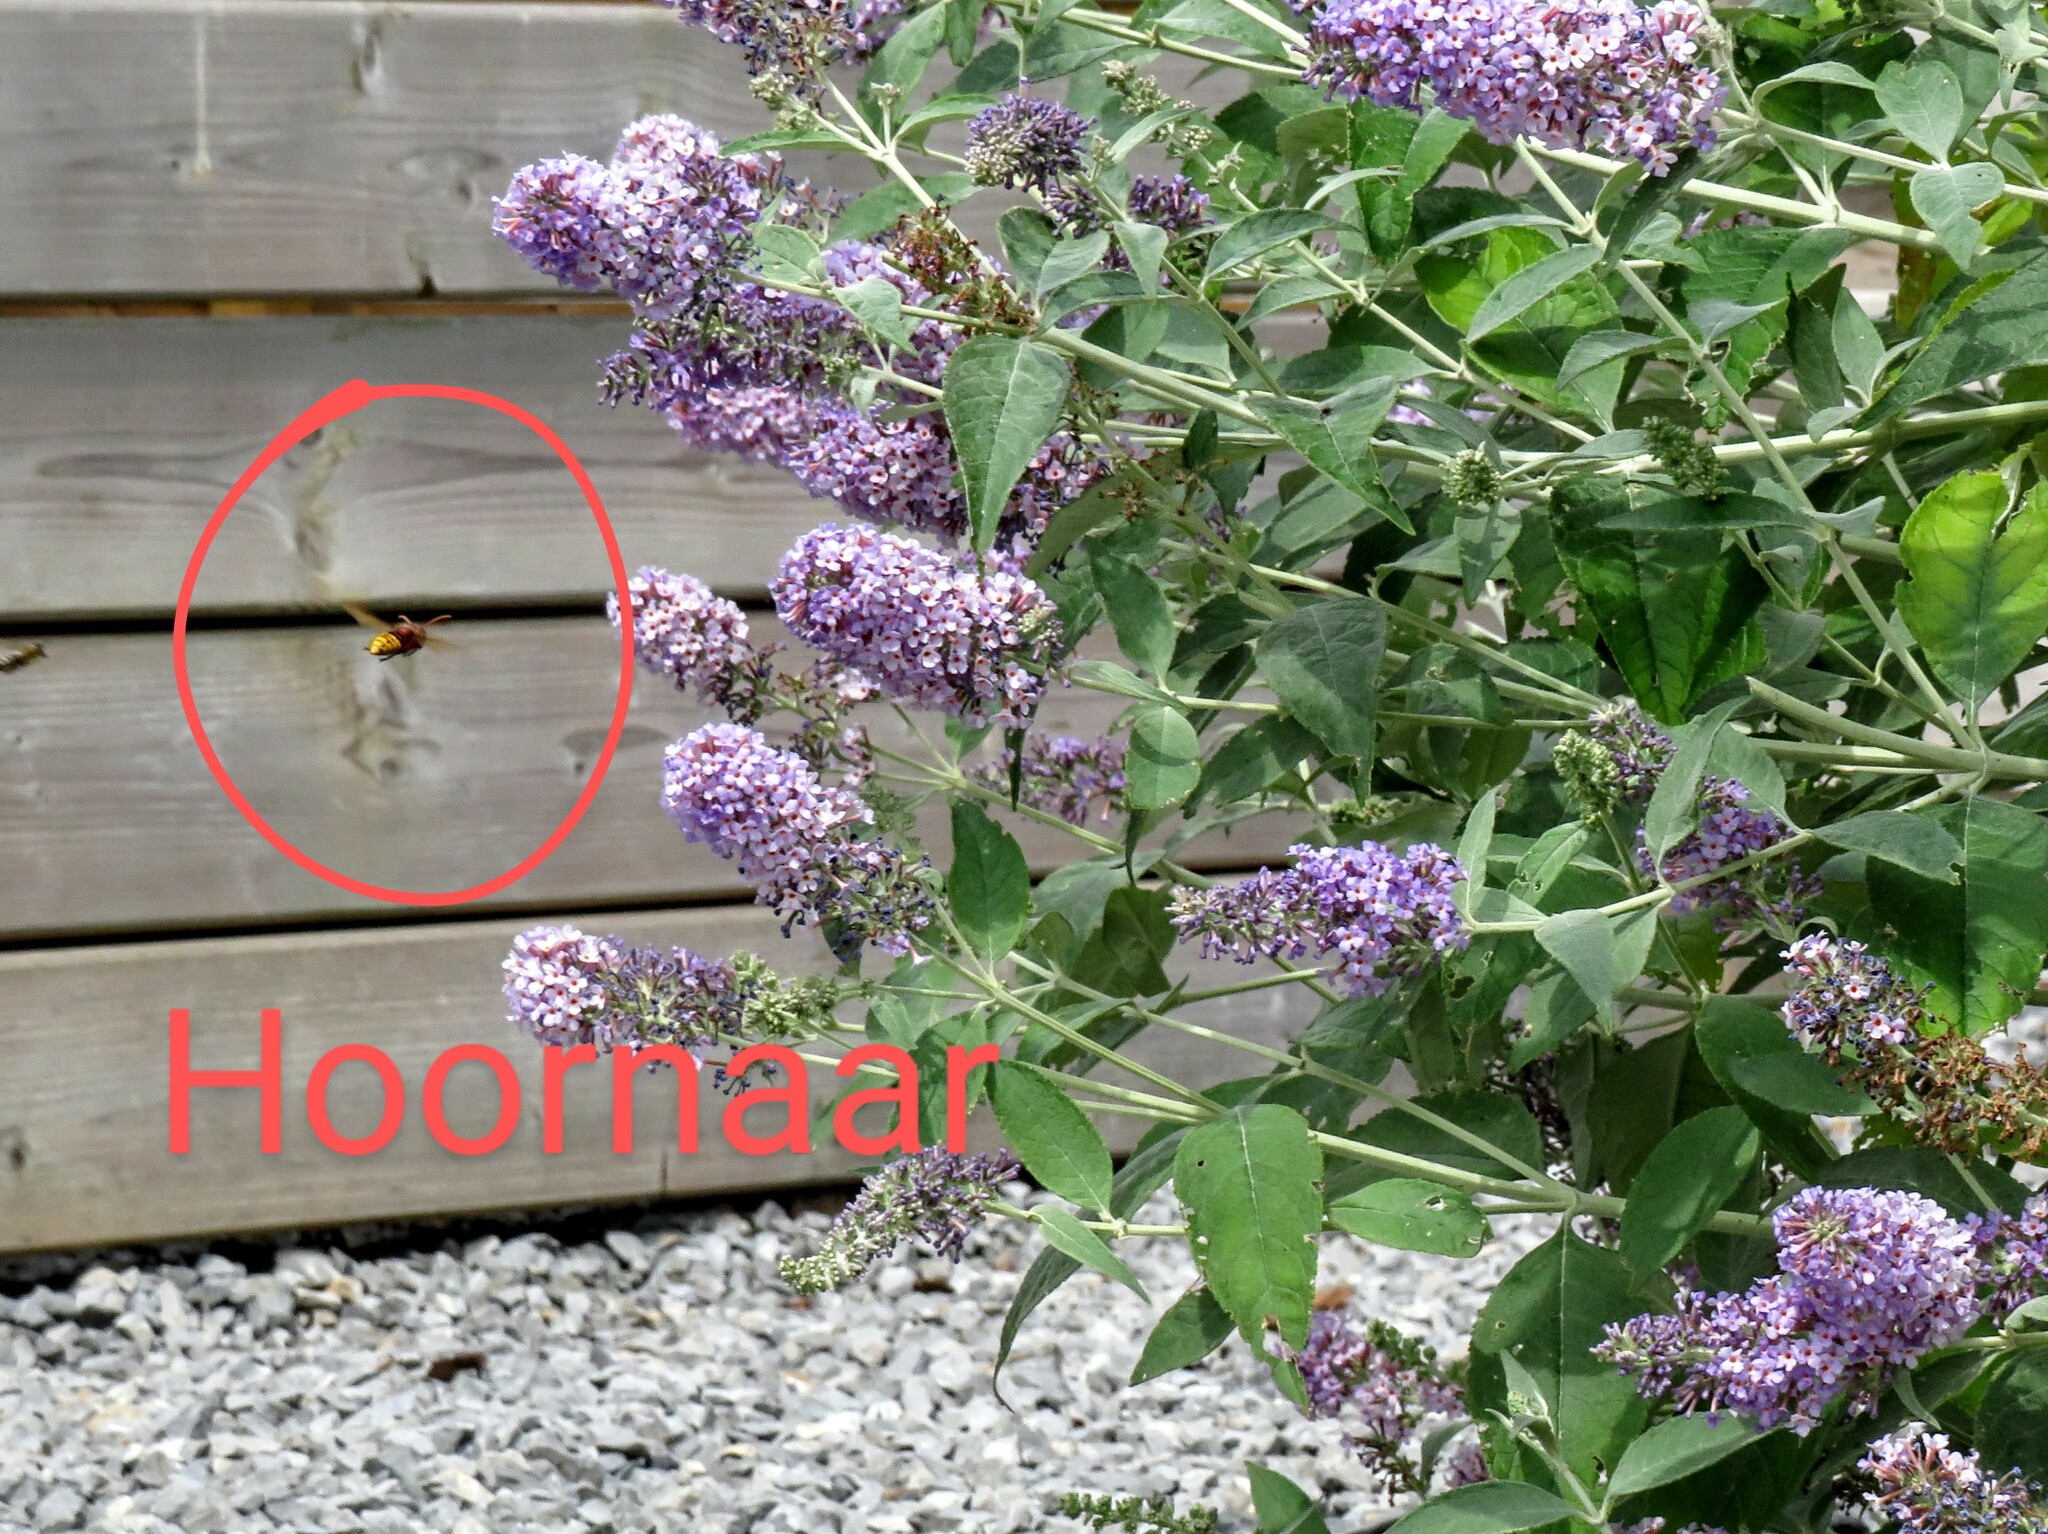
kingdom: Animalia
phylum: Arthropoda
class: Insecta
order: Hymenoptera
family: Vespidae
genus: Vespa
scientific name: Vespa crabro
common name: Hornet
